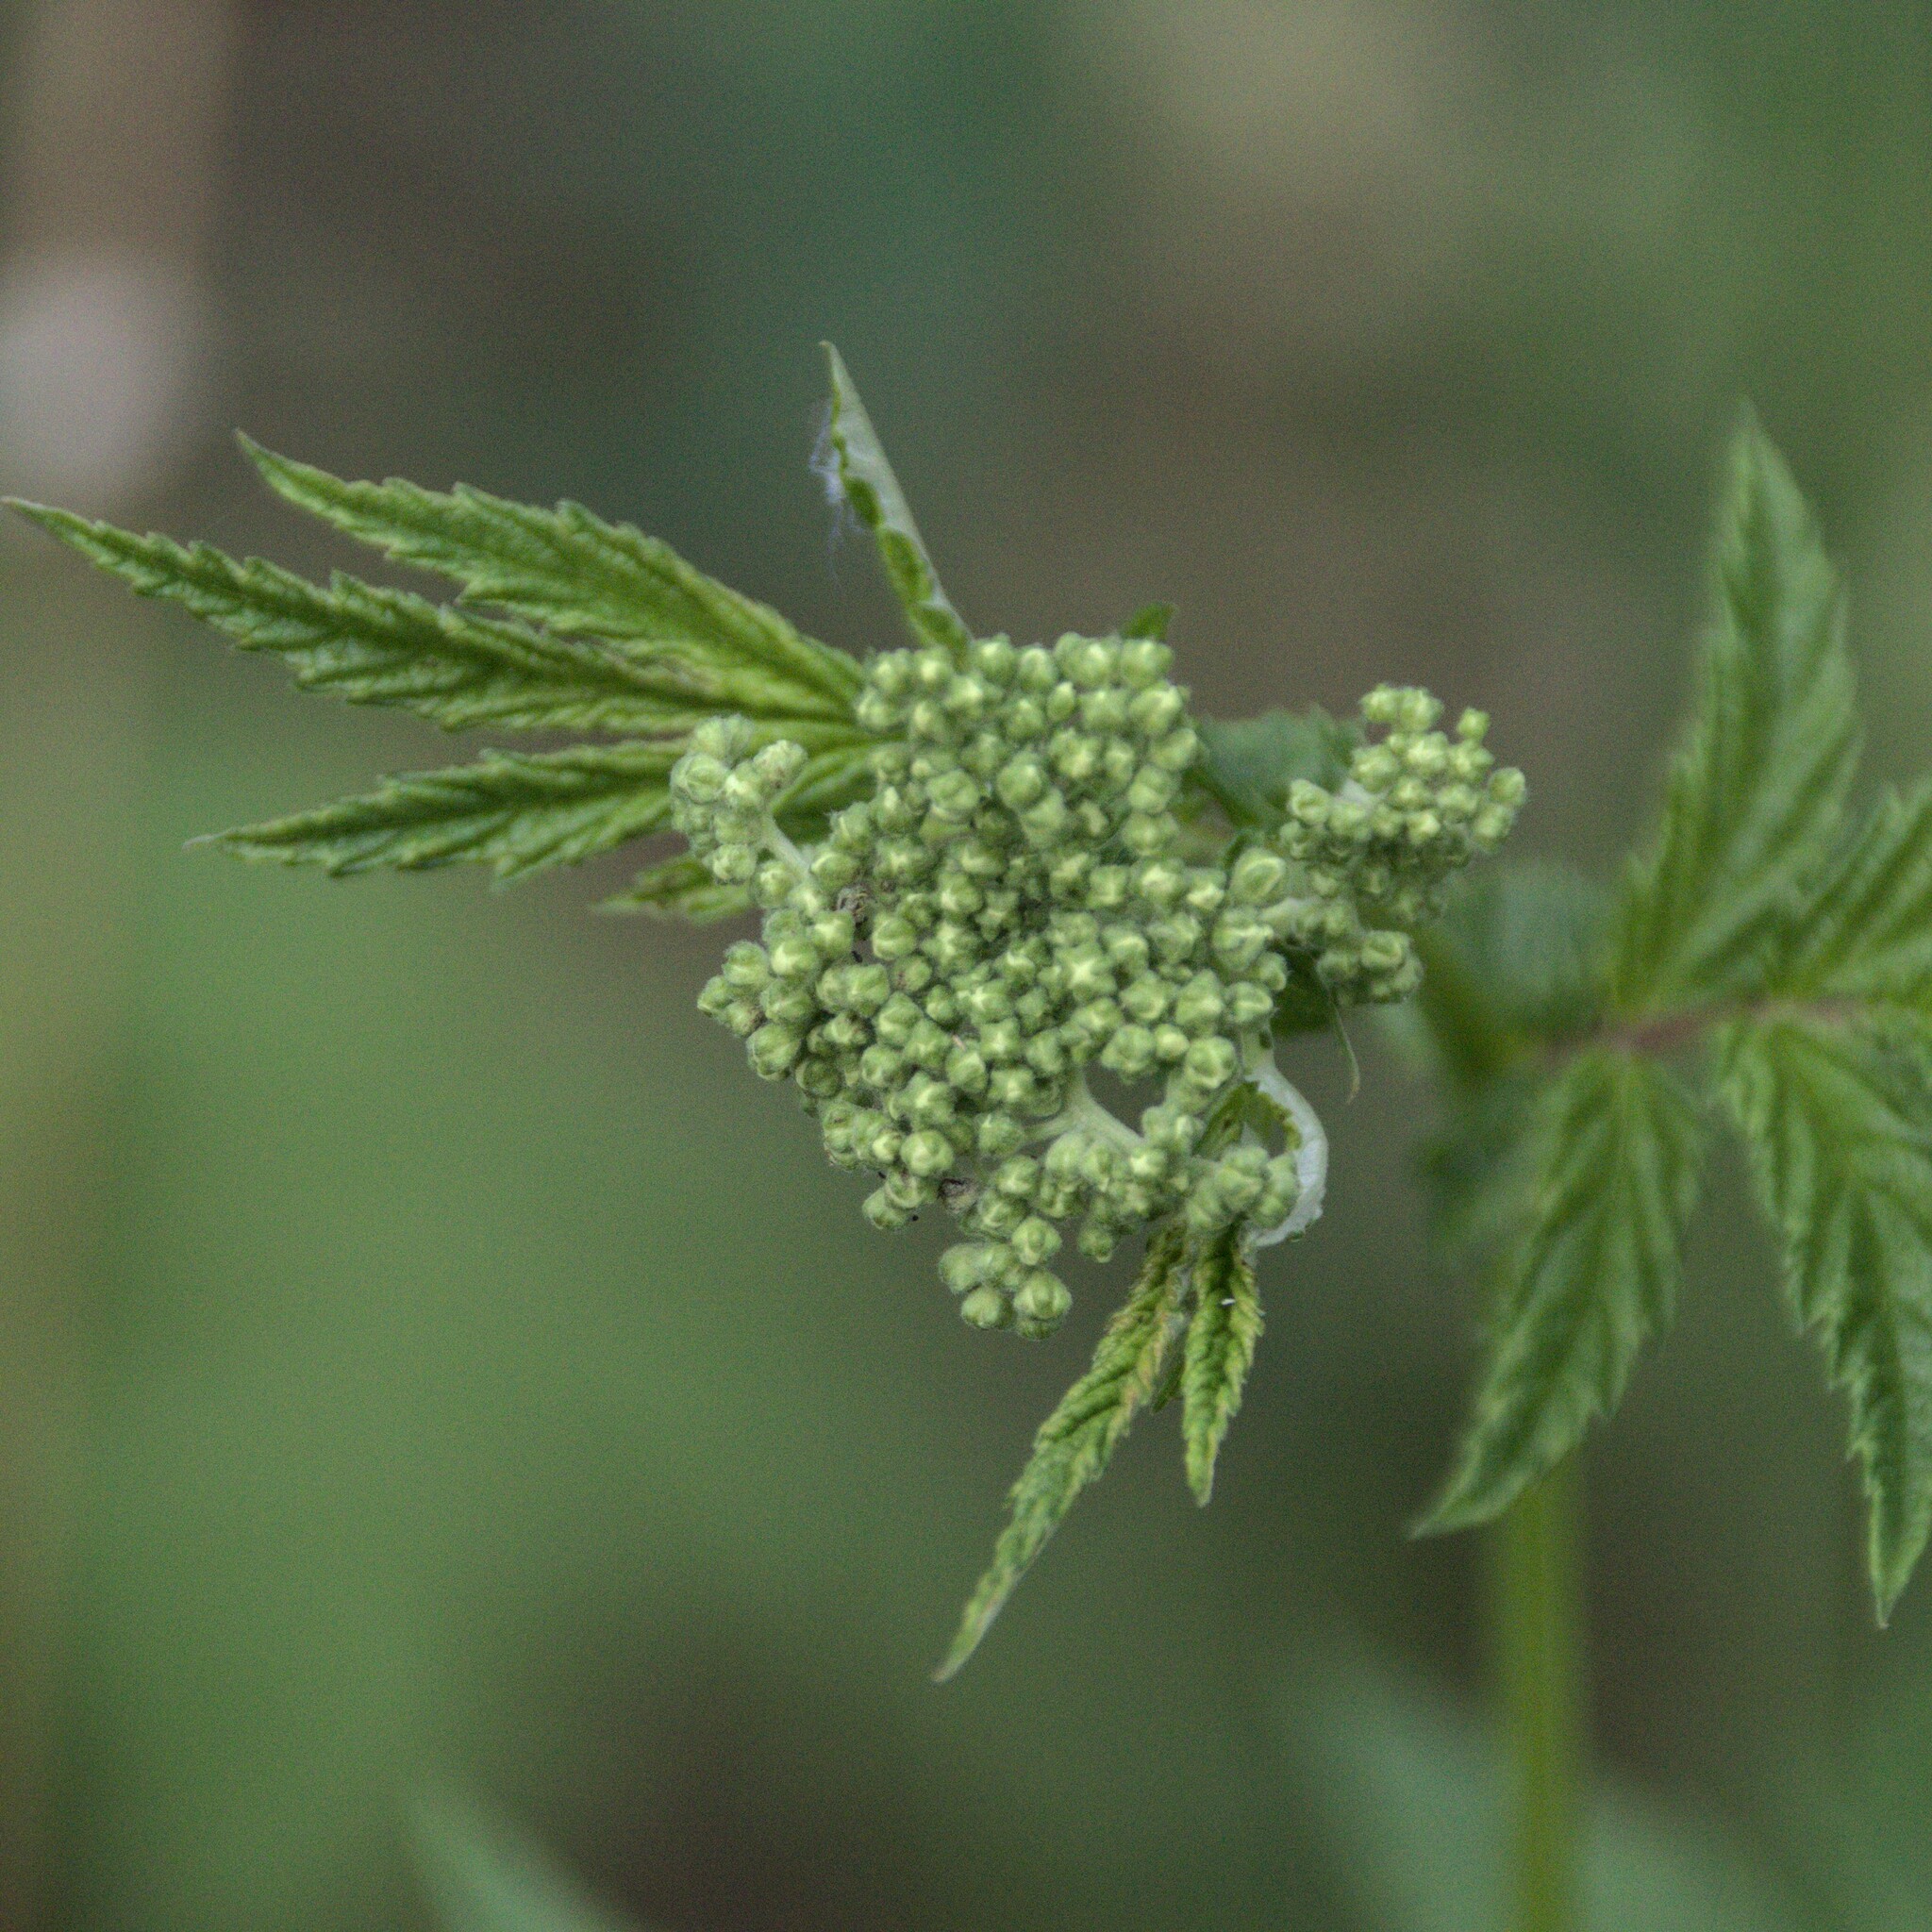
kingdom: Plantae
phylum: Tracheophyta
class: Magnoliopsida
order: Rosales
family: Rosaceae
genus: Filipendula
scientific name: Filipendula ulmaria
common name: Meadowsweet
